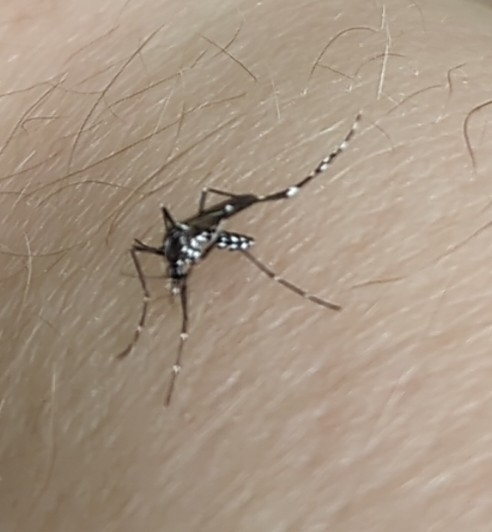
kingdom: Animalia
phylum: Arthropoda
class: Insecta
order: Diptera
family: Culicidae
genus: Aedes
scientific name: Aedes albopictus
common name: Tiger mosquito
